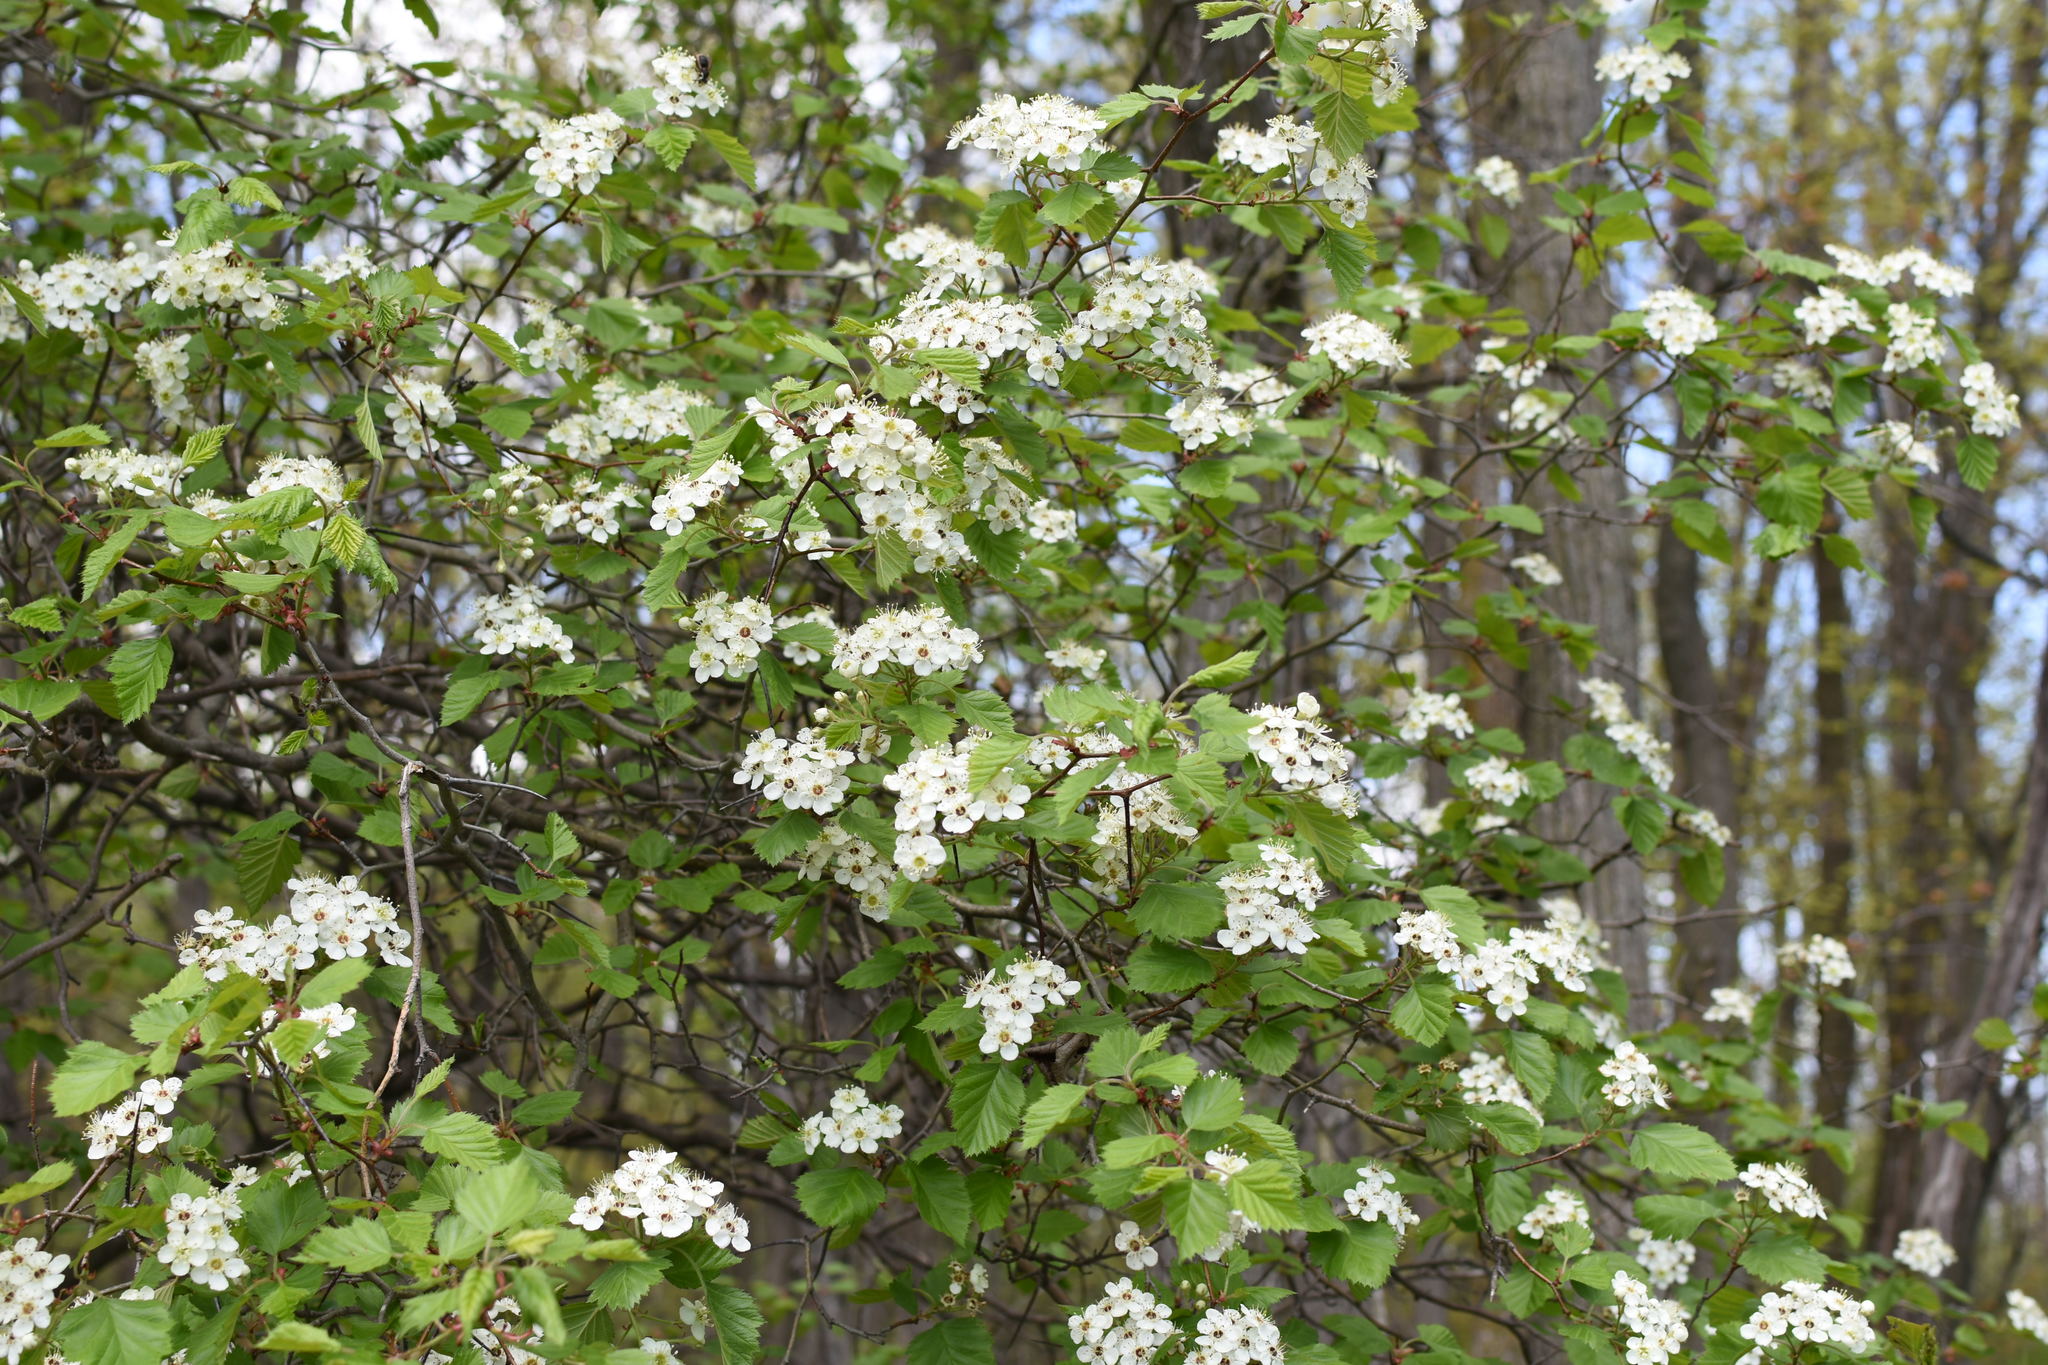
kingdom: Plantae
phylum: Tracheophyta
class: Magnoliopsida
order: Rosales
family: Rosaceae
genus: Crataegus
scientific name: Crataegus submollis
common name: Hairy cockspurthorn
